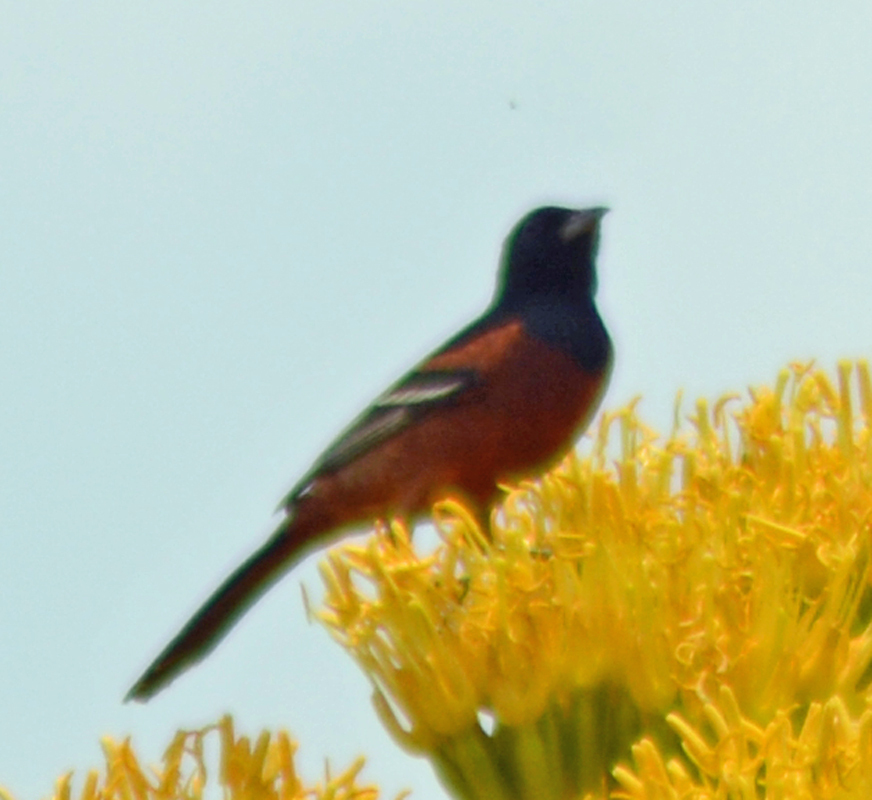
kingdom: Animalia
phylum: Chordata
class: Aves
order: Passeriformes
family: Icteridae
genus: Icterus
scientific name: Icterus spurius
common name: Orchard oriole
